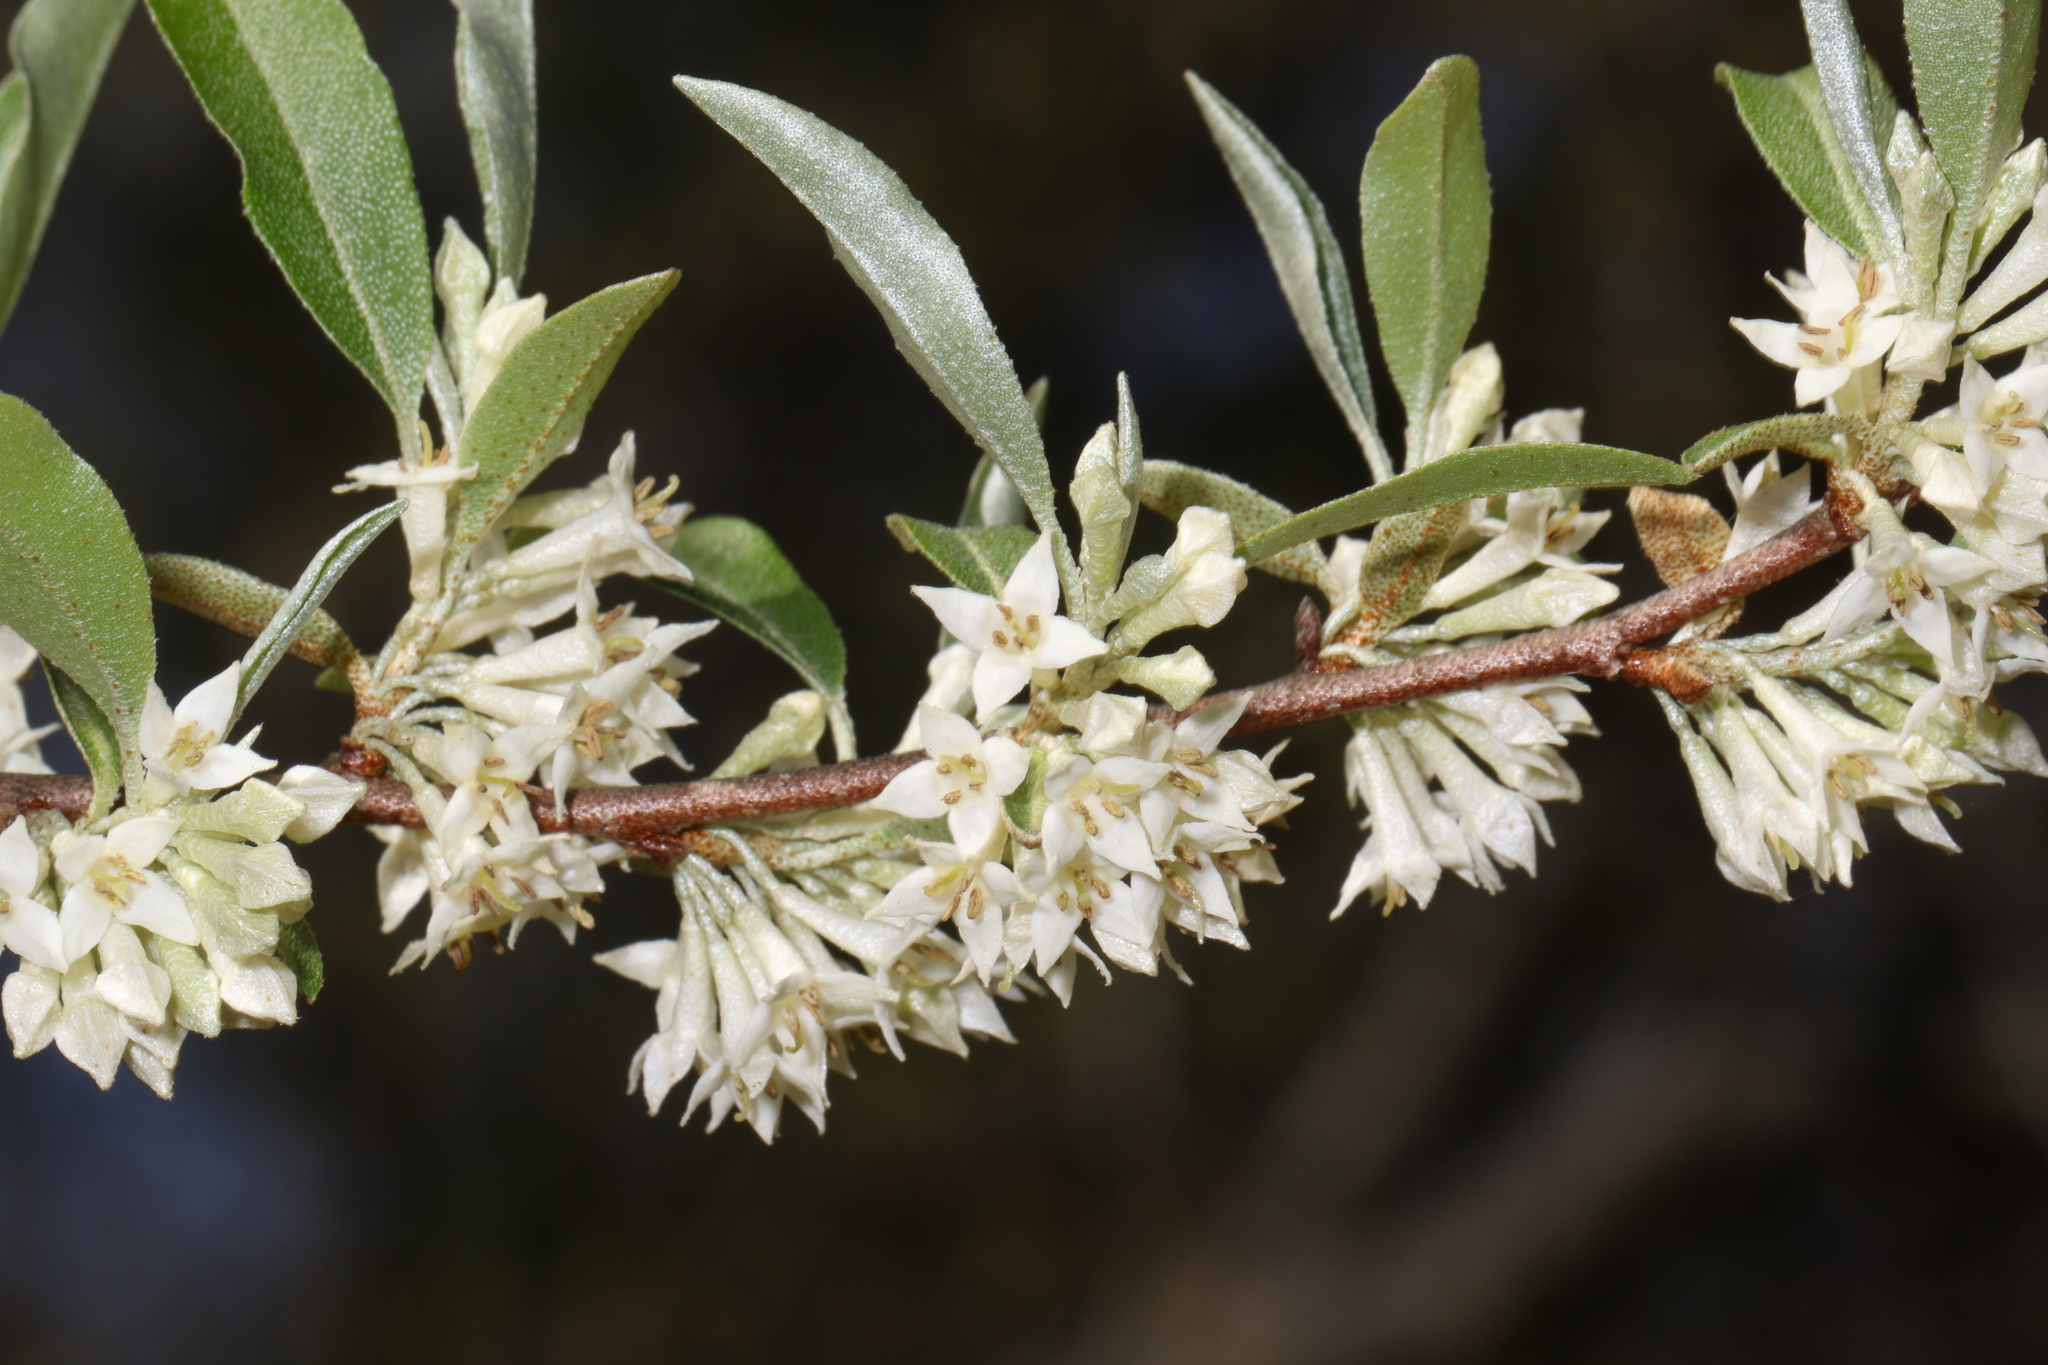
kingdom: Plantae
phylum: Tracheophyta
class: Magnoliopsida
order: Rosales
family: Elaeagnaceae
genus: Elaeagnus
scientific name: Elaeagnus umbellata
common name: Autumn olive
